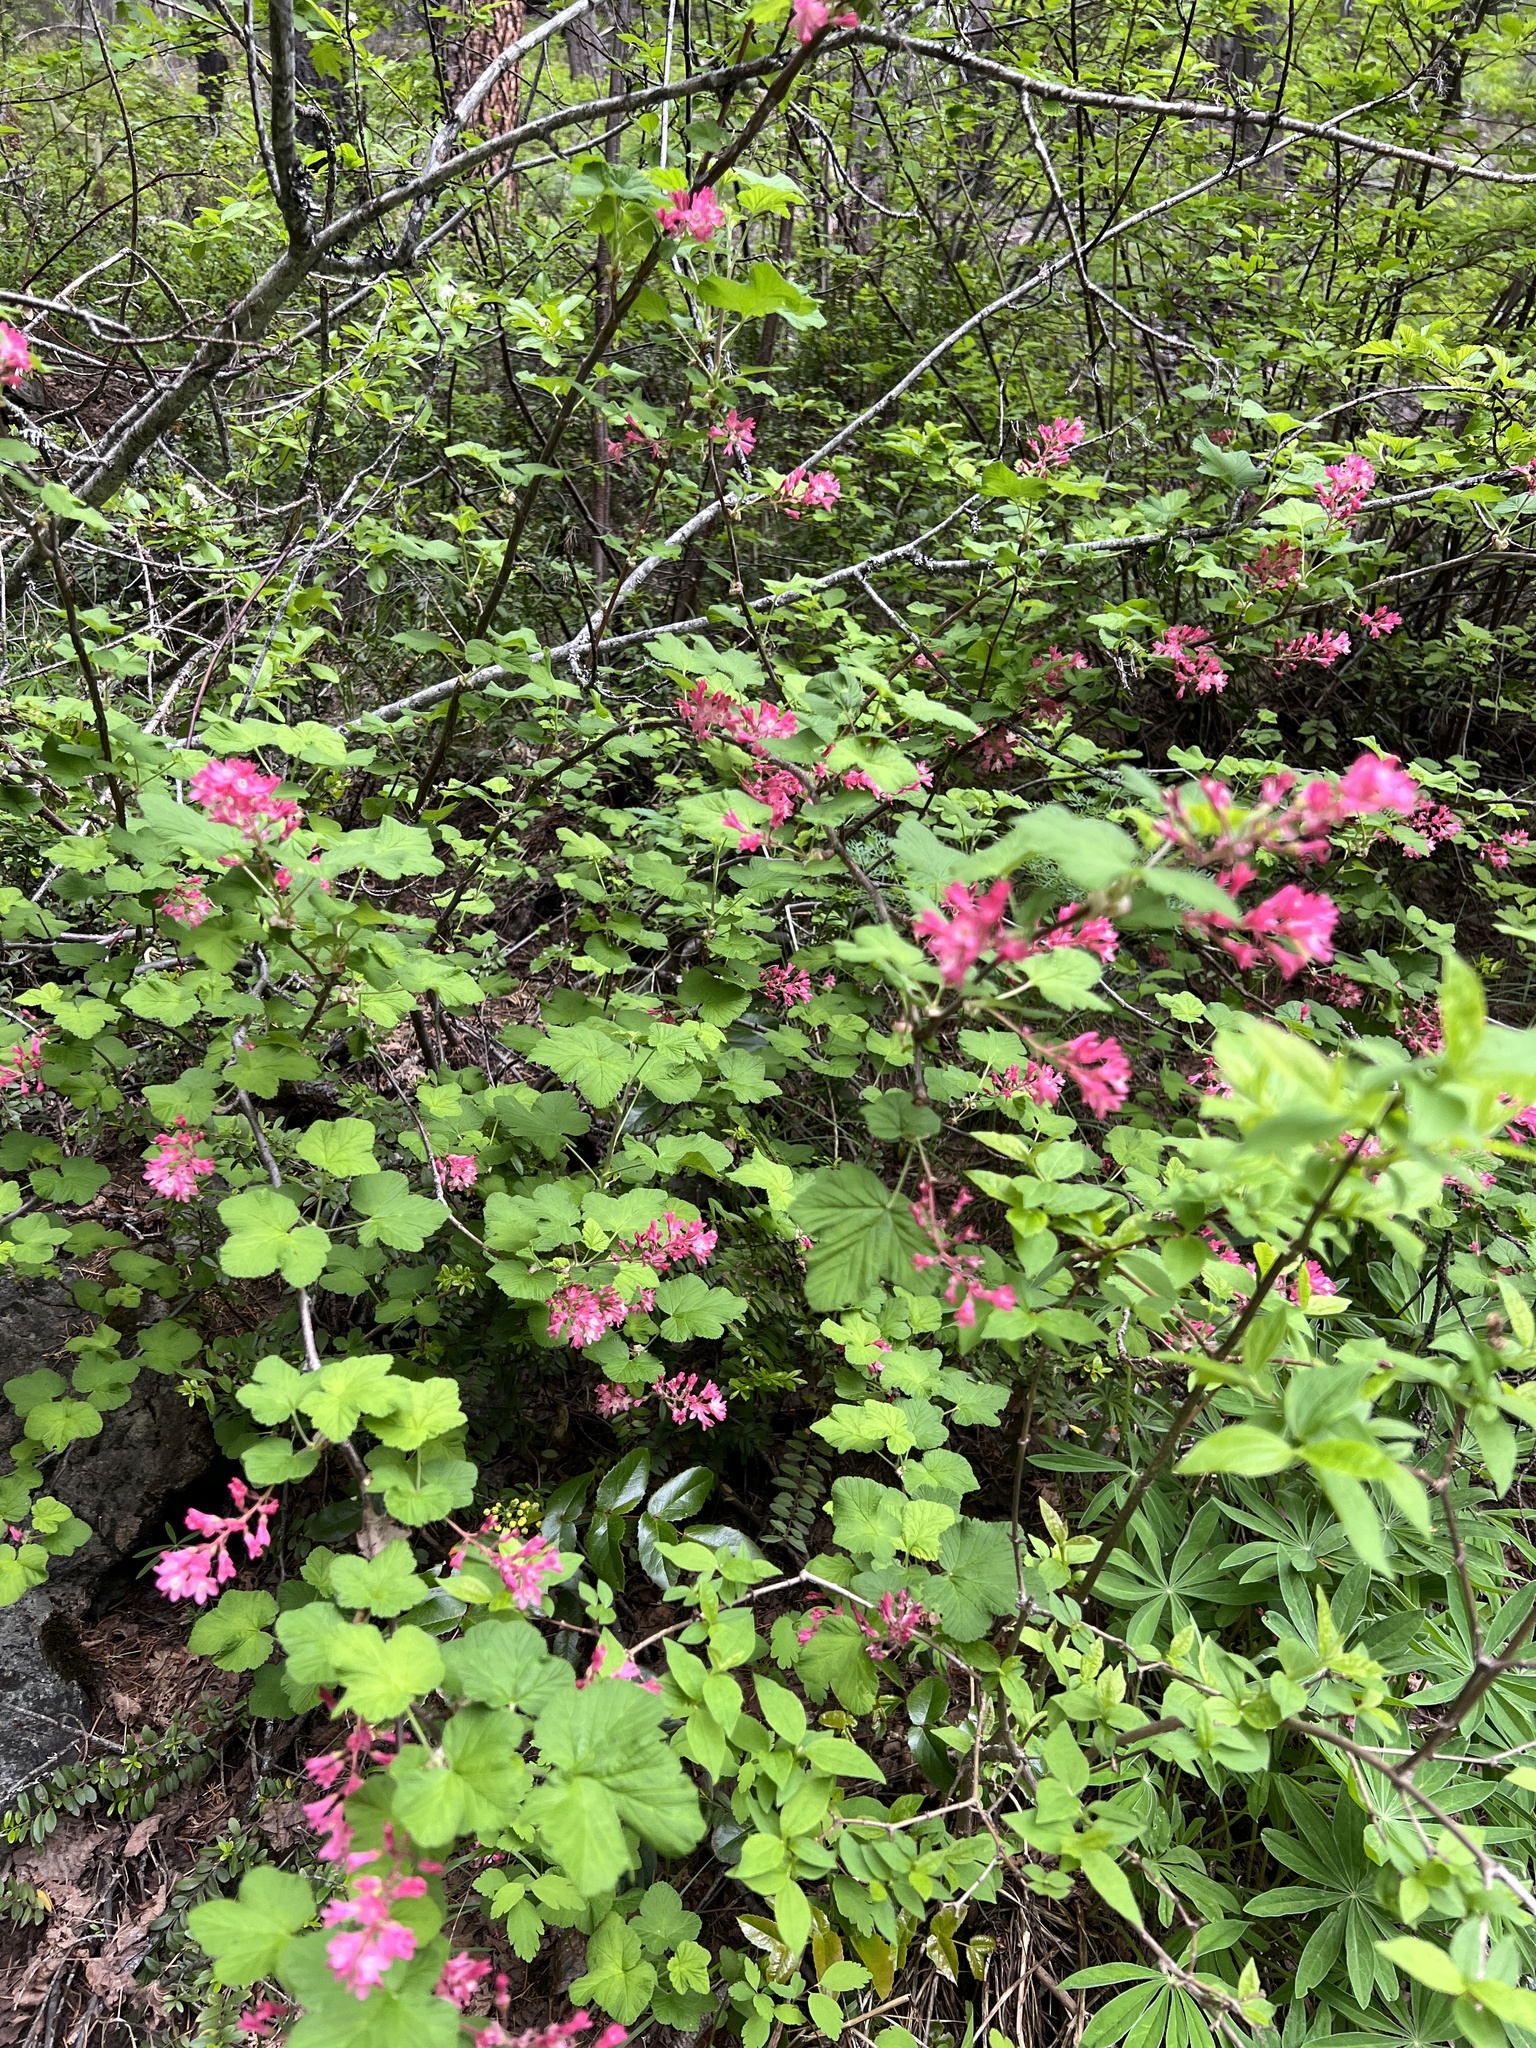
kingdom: Plantae
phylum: Tracheophyta
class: Magnoliopsida
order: Saxifragales
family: Grossulariaceae
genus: Ribes
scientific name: Ribes sanguineum
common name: Flowering currant
